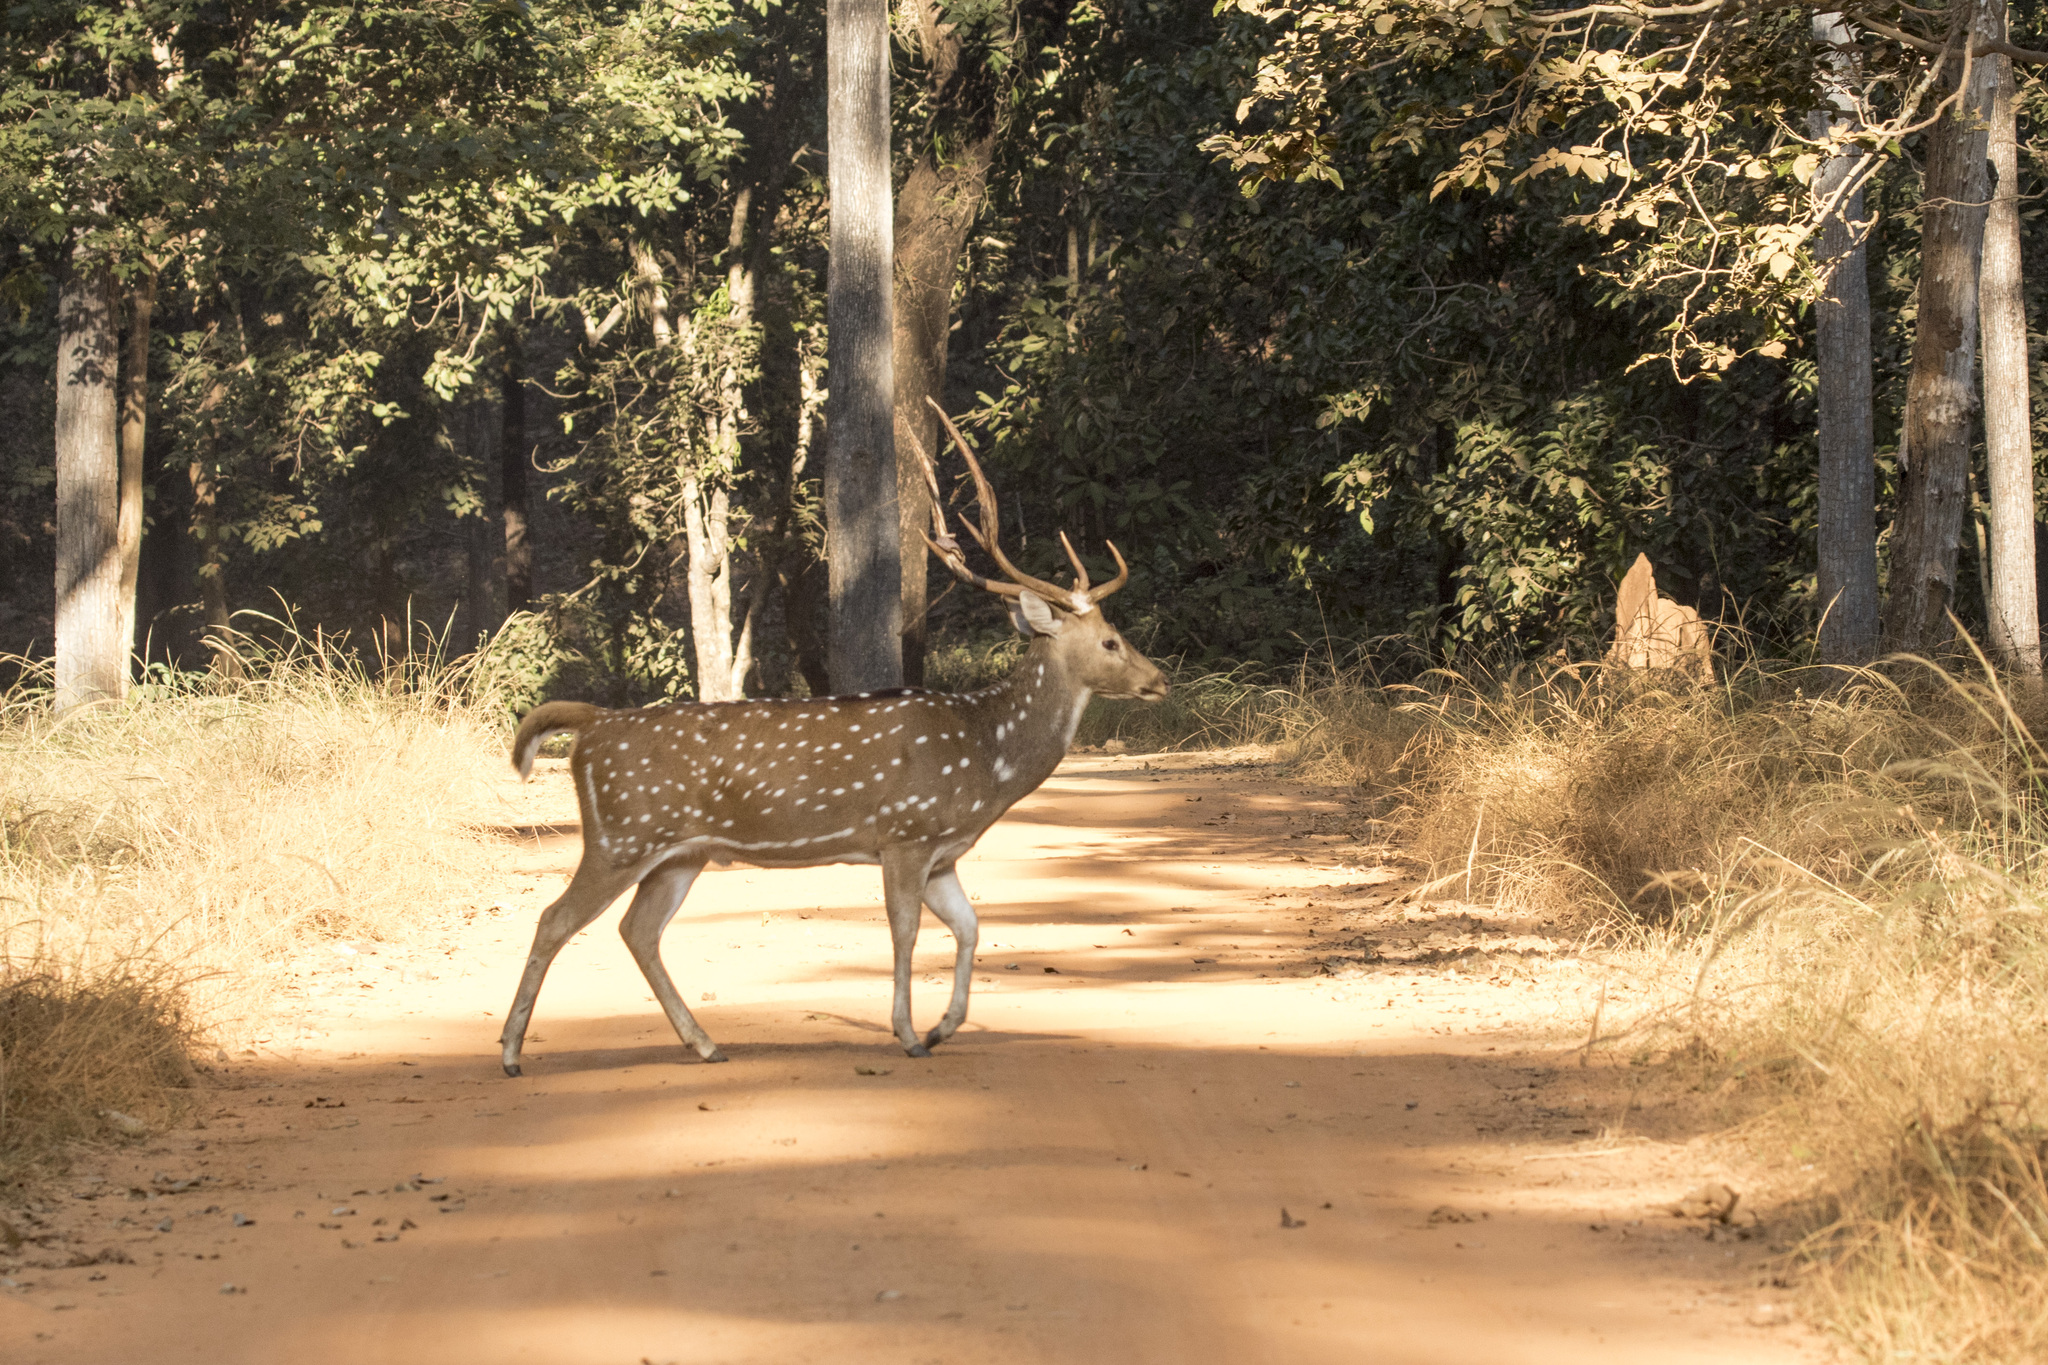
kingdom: Animalia
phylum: Chordata
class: Mammalia
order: Artiodactyla
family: Cervidae
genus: Axis
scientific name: Axis axis
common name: Chital
